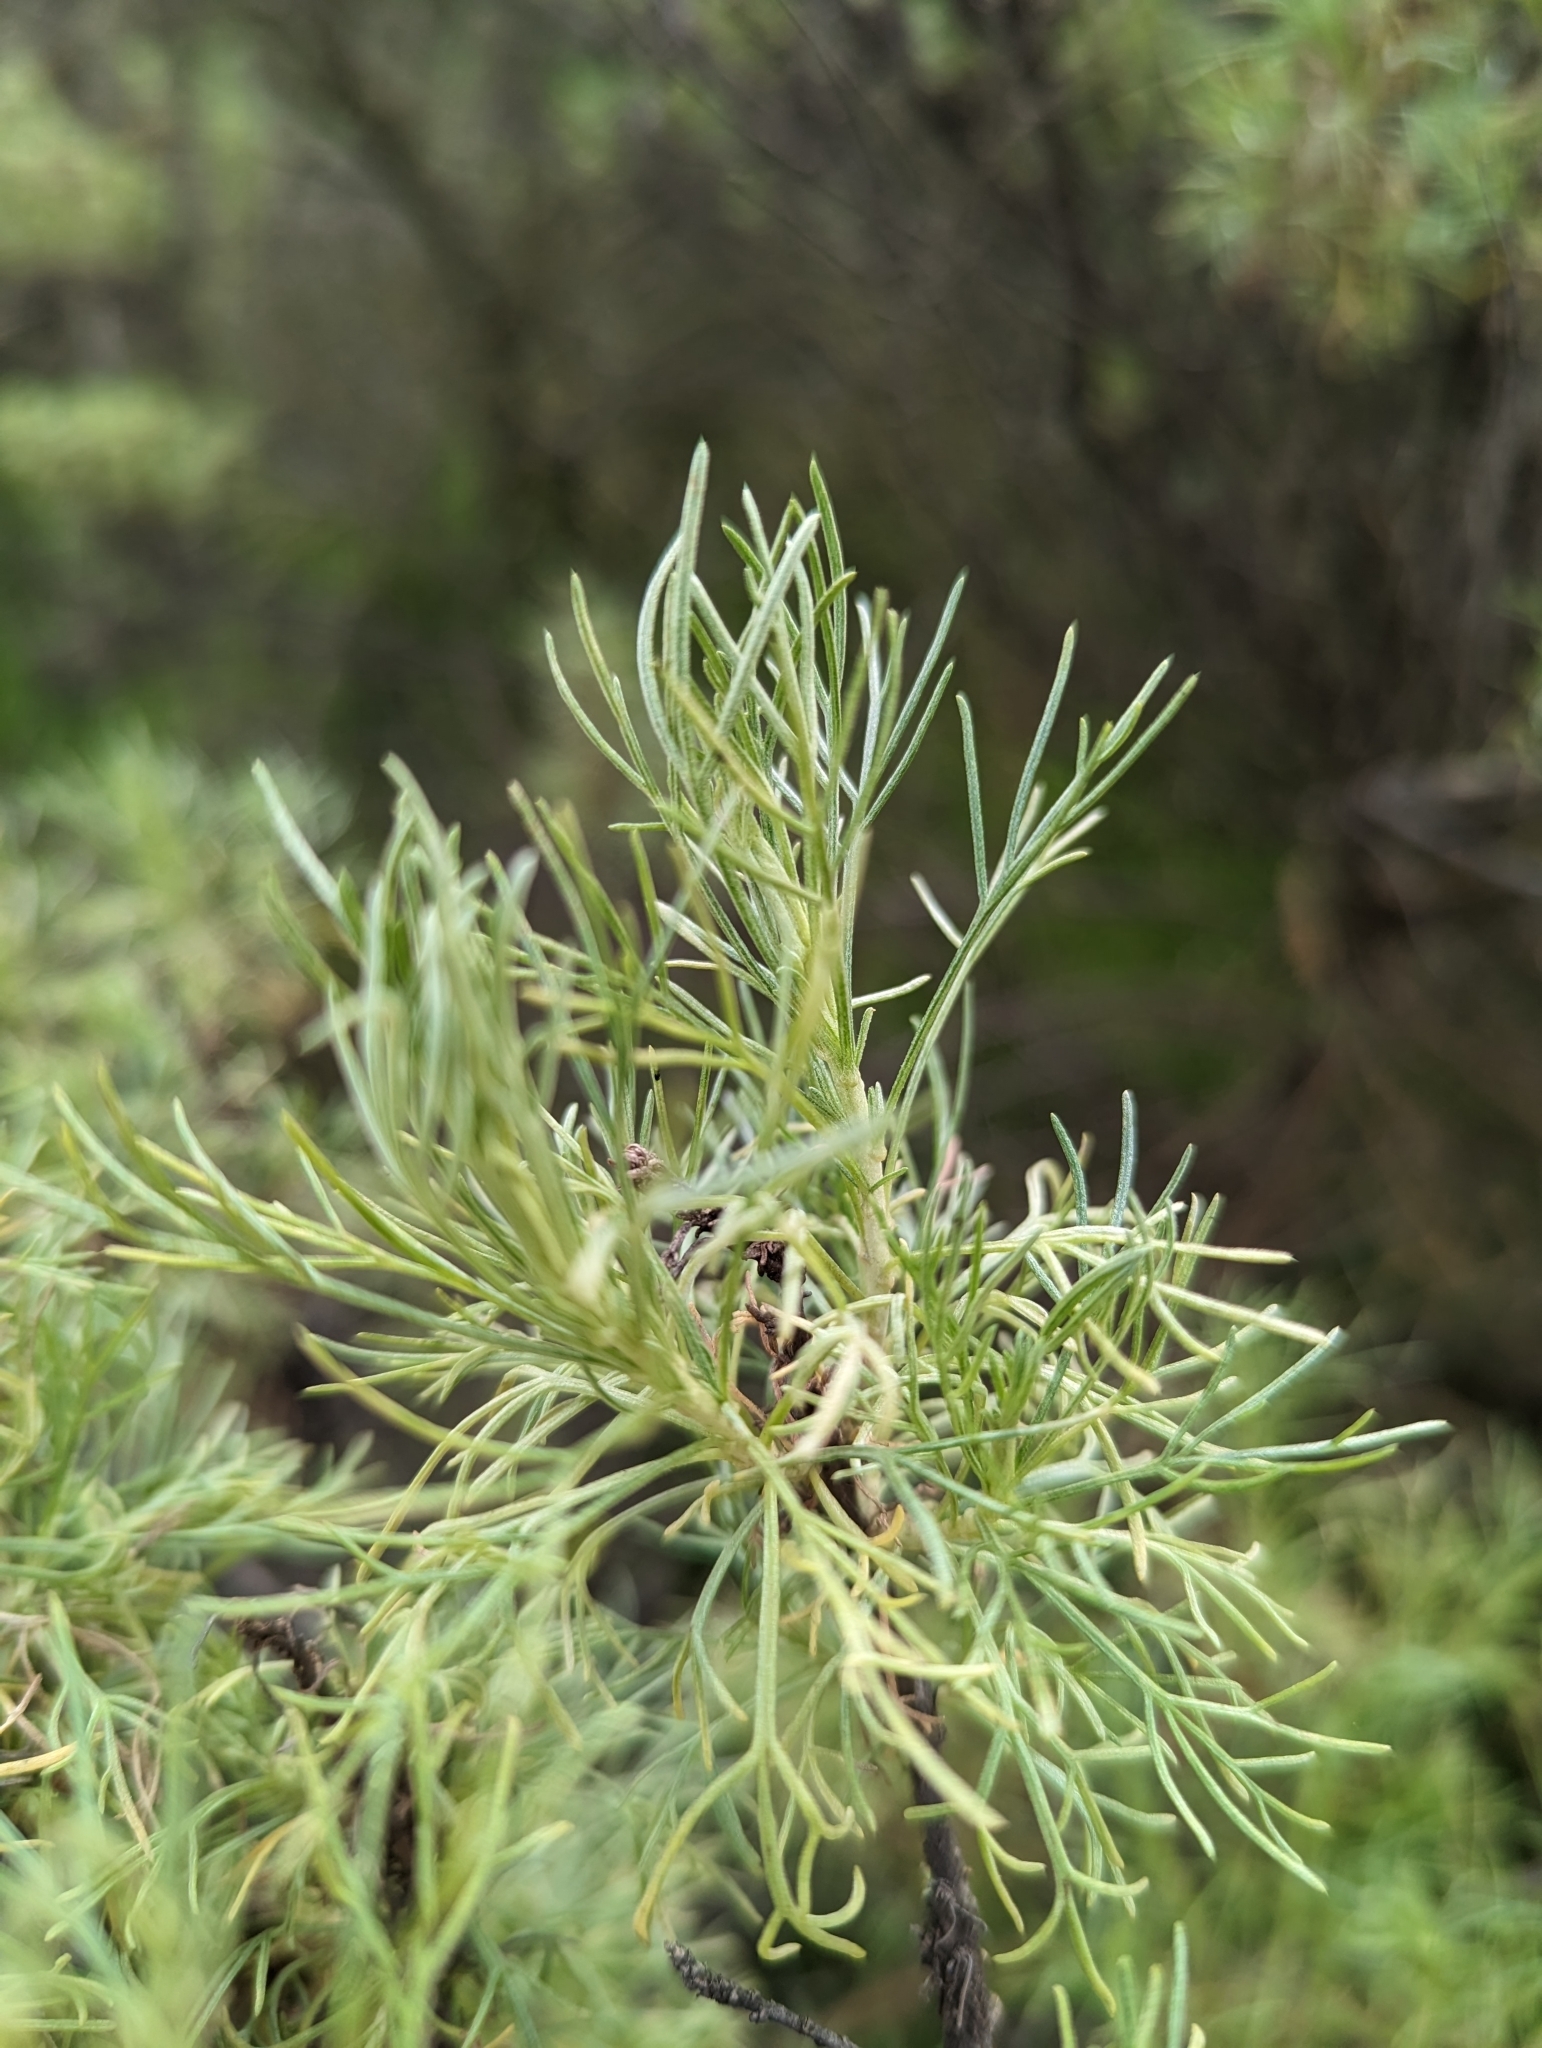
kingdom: Plantae
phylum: Tracheophyta
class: Magnoliopsida
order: Asterales
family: Asteraceae
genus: Artemisia
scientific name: Artemisia californica
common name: California sagebrush
